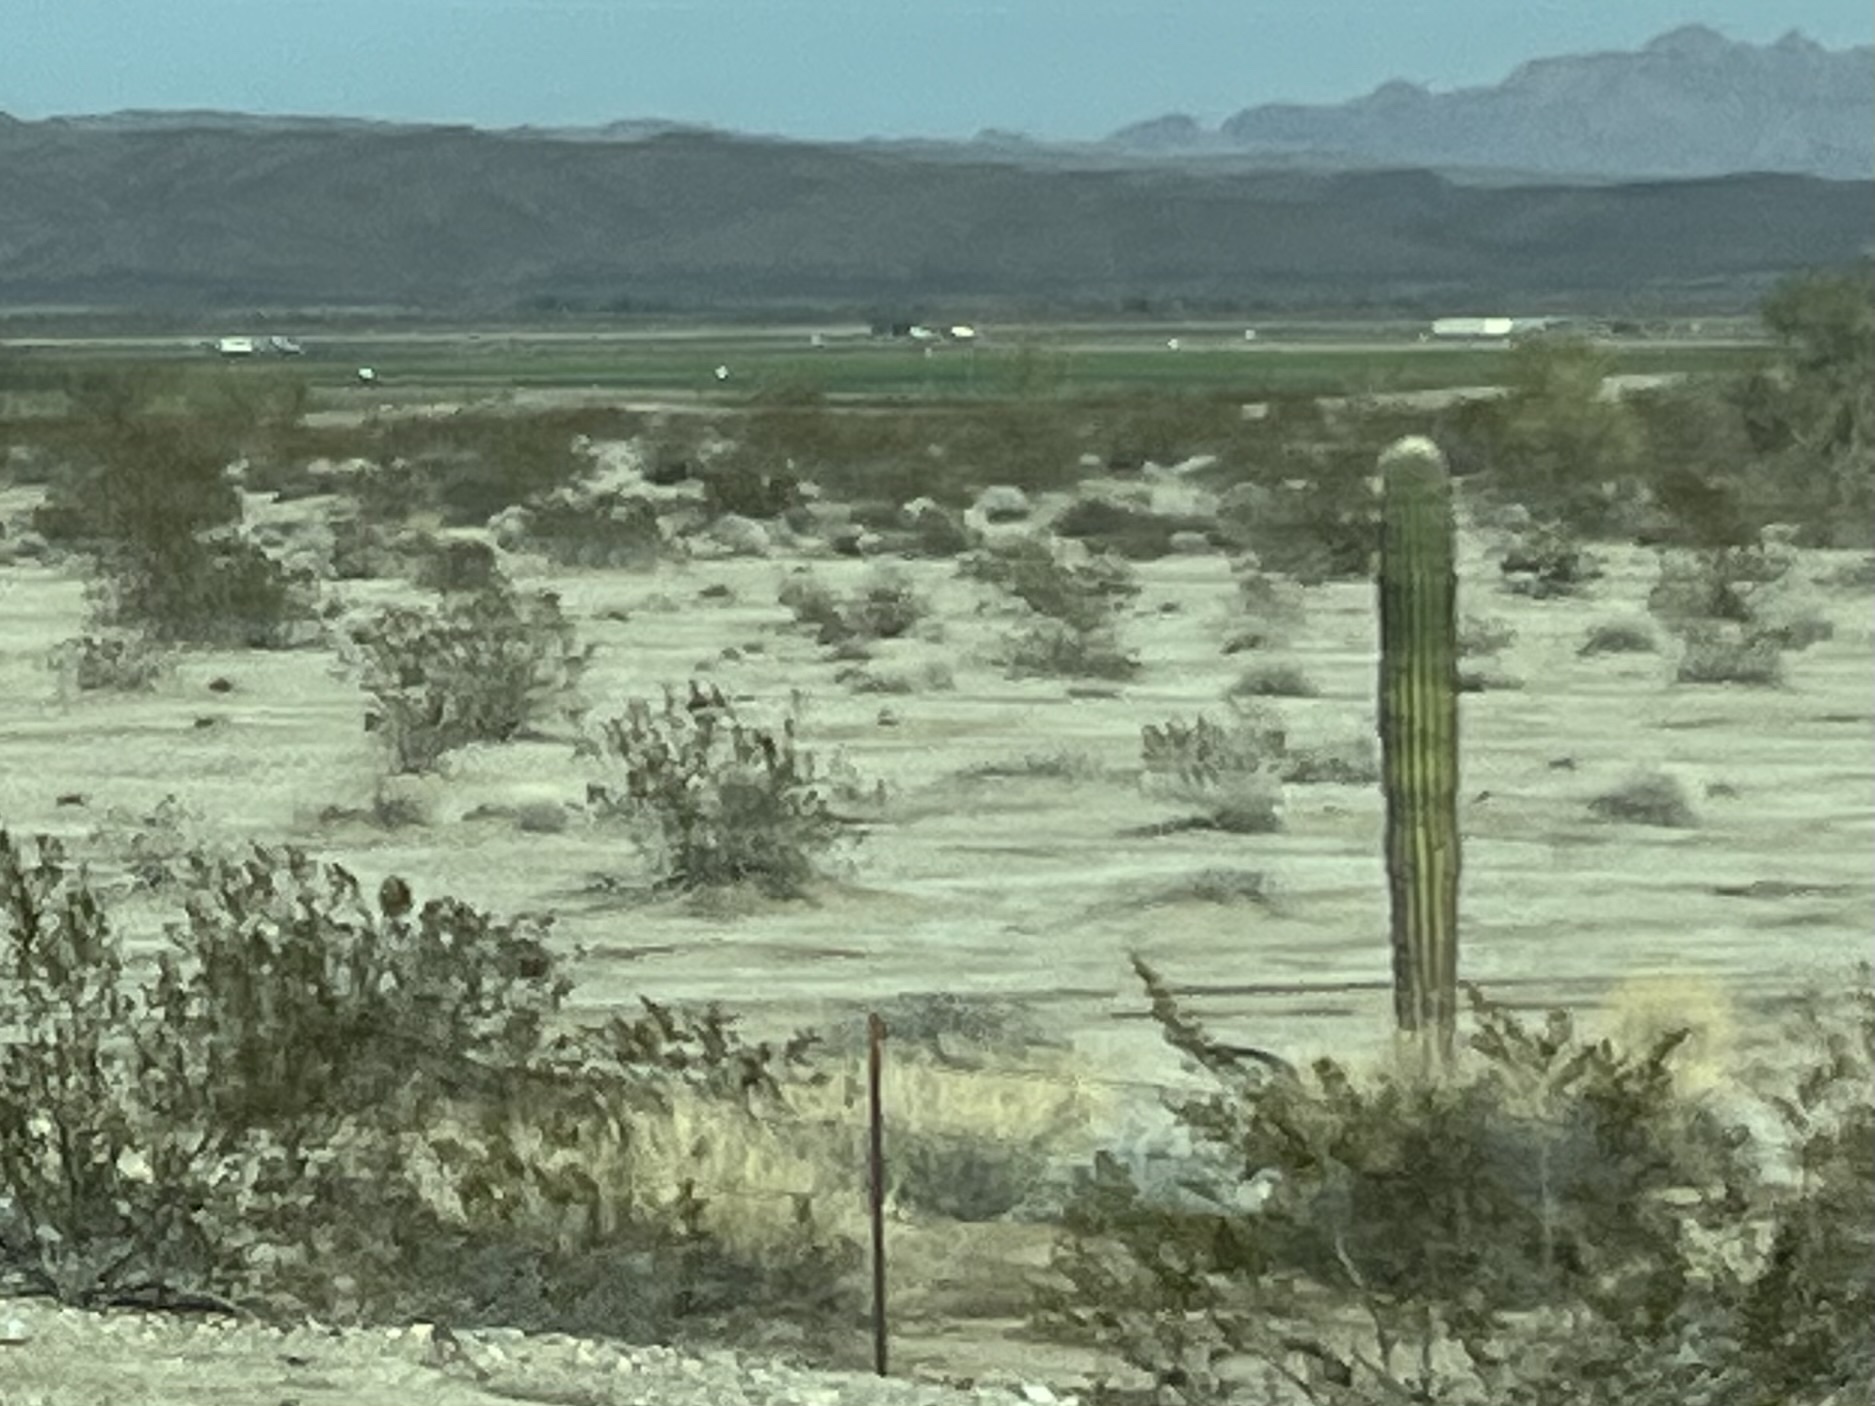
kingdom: Plantae
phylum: Tracheophyta
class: Magnoliopsida
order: Caryophyllales
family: Cactaceae
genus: Carnegiea
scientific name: Carnegiea gigantea
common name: Saguaro
